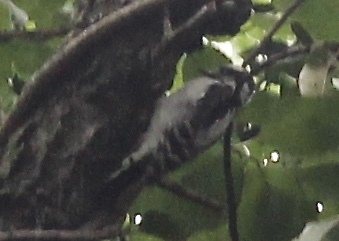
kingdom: Animalia
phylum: Chordata
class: Aves
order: Piciformes
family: Picidae
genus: Dryobates
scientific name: Dryobates pubescens
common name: Downy woodpecker
